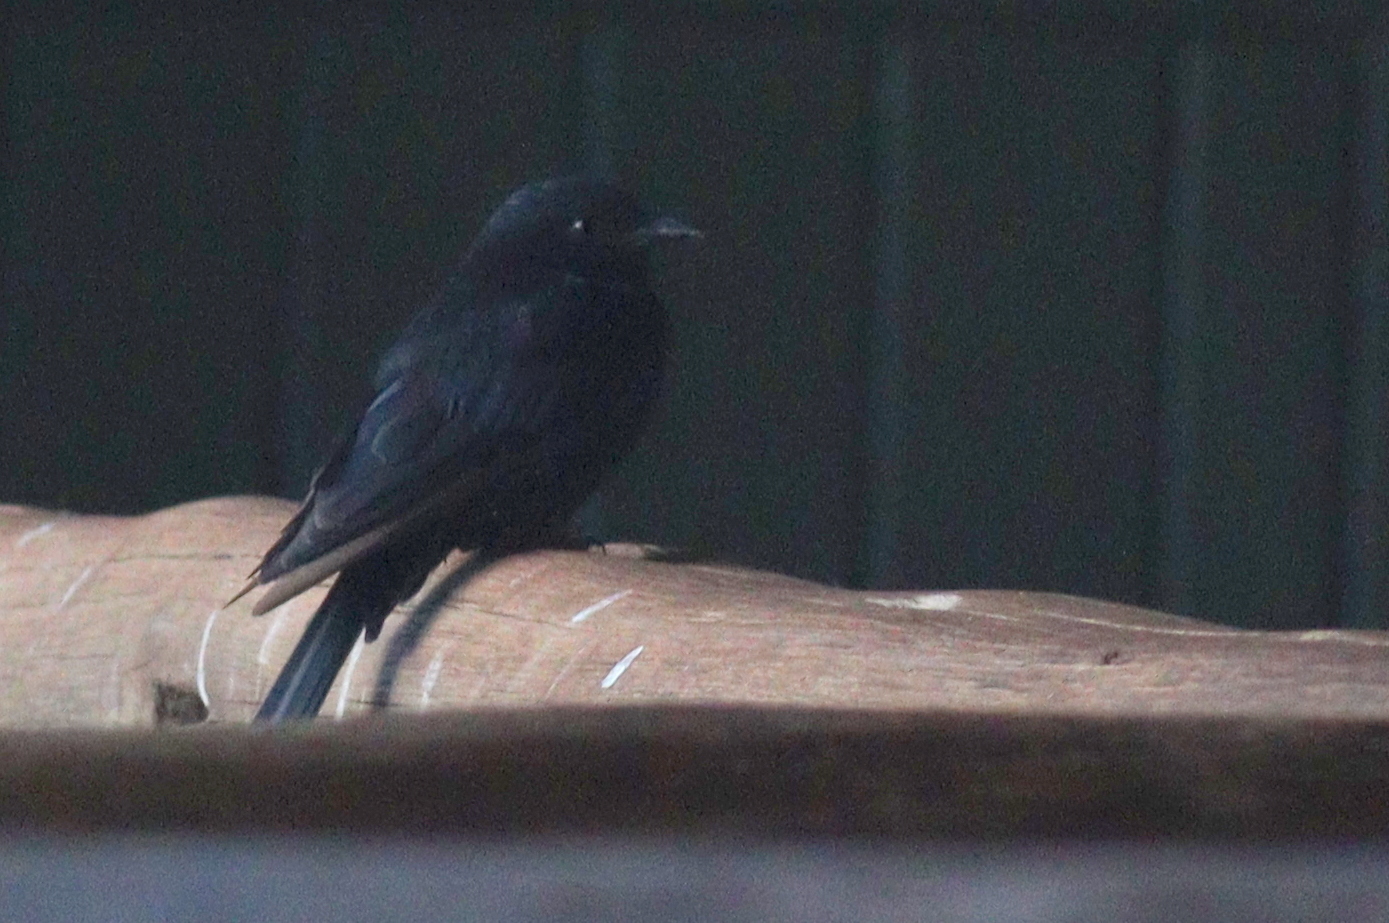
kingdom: Animalia
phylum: Chordata
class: Aves
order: Passeriformes
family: Muscicapidae
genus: Melaenornis
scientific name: Melaenornis pammelaina
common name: Southern black flycatcher
